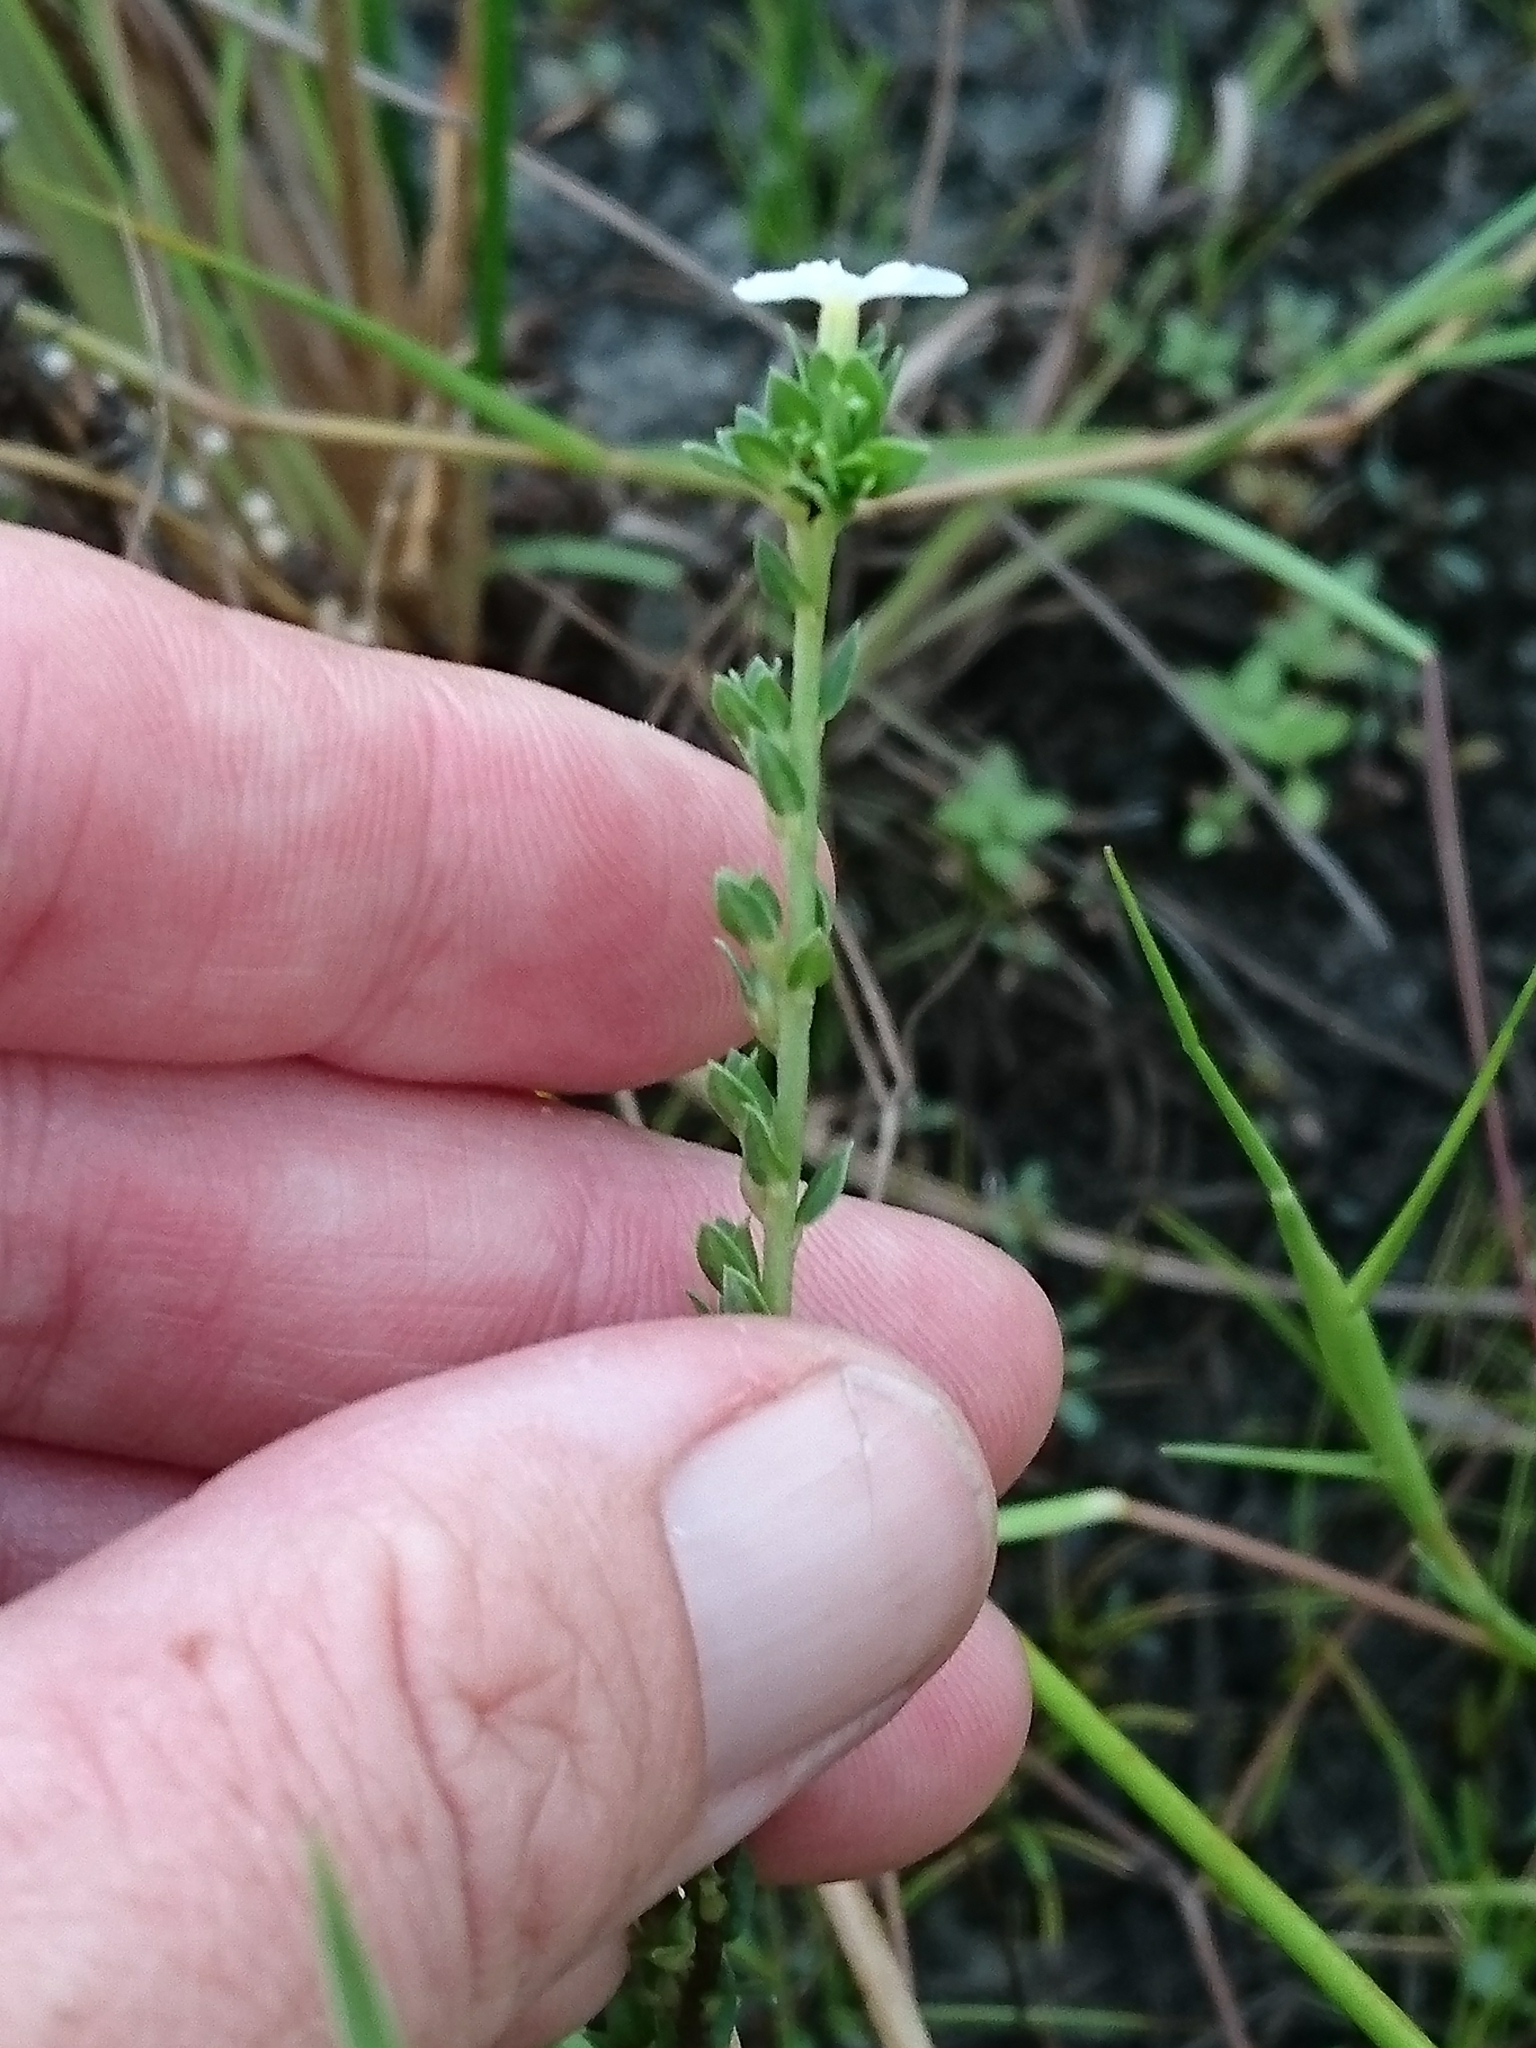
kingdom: Plantae
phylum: Tracheophyta
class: Magnoliopsida
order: Boraginales
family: Heliotropiaceae
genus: Euploca
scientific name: Euploca polyphylla
